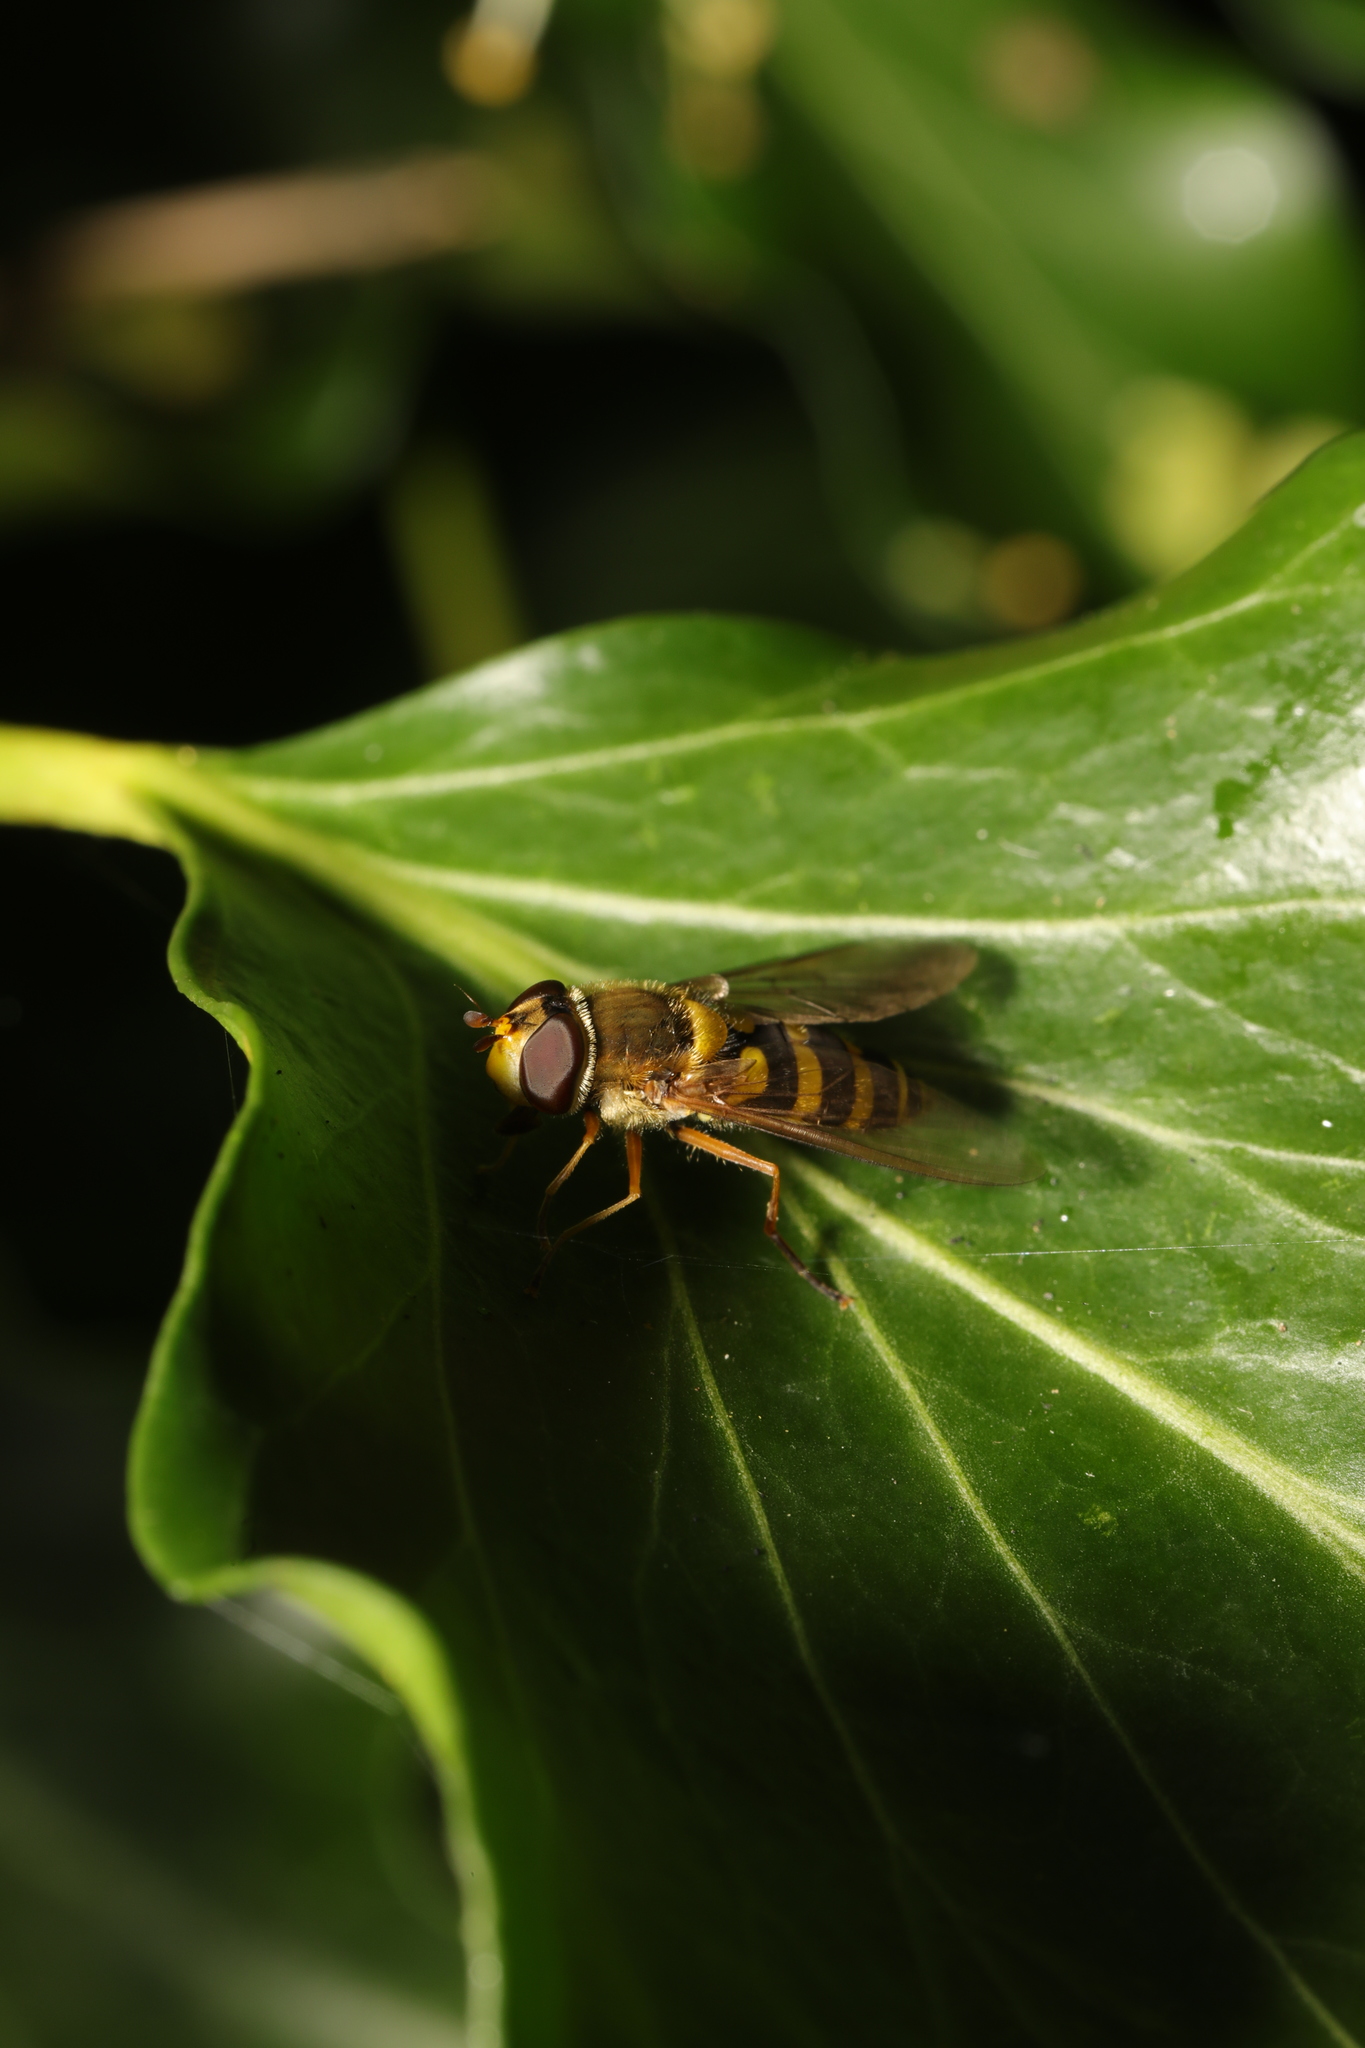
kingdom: Animalia
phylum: Arthropoda
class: Insecta
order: Diptera
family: Syrphidae
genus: Syrphus
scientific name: Syrphus ribesii
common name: Common flower fly
